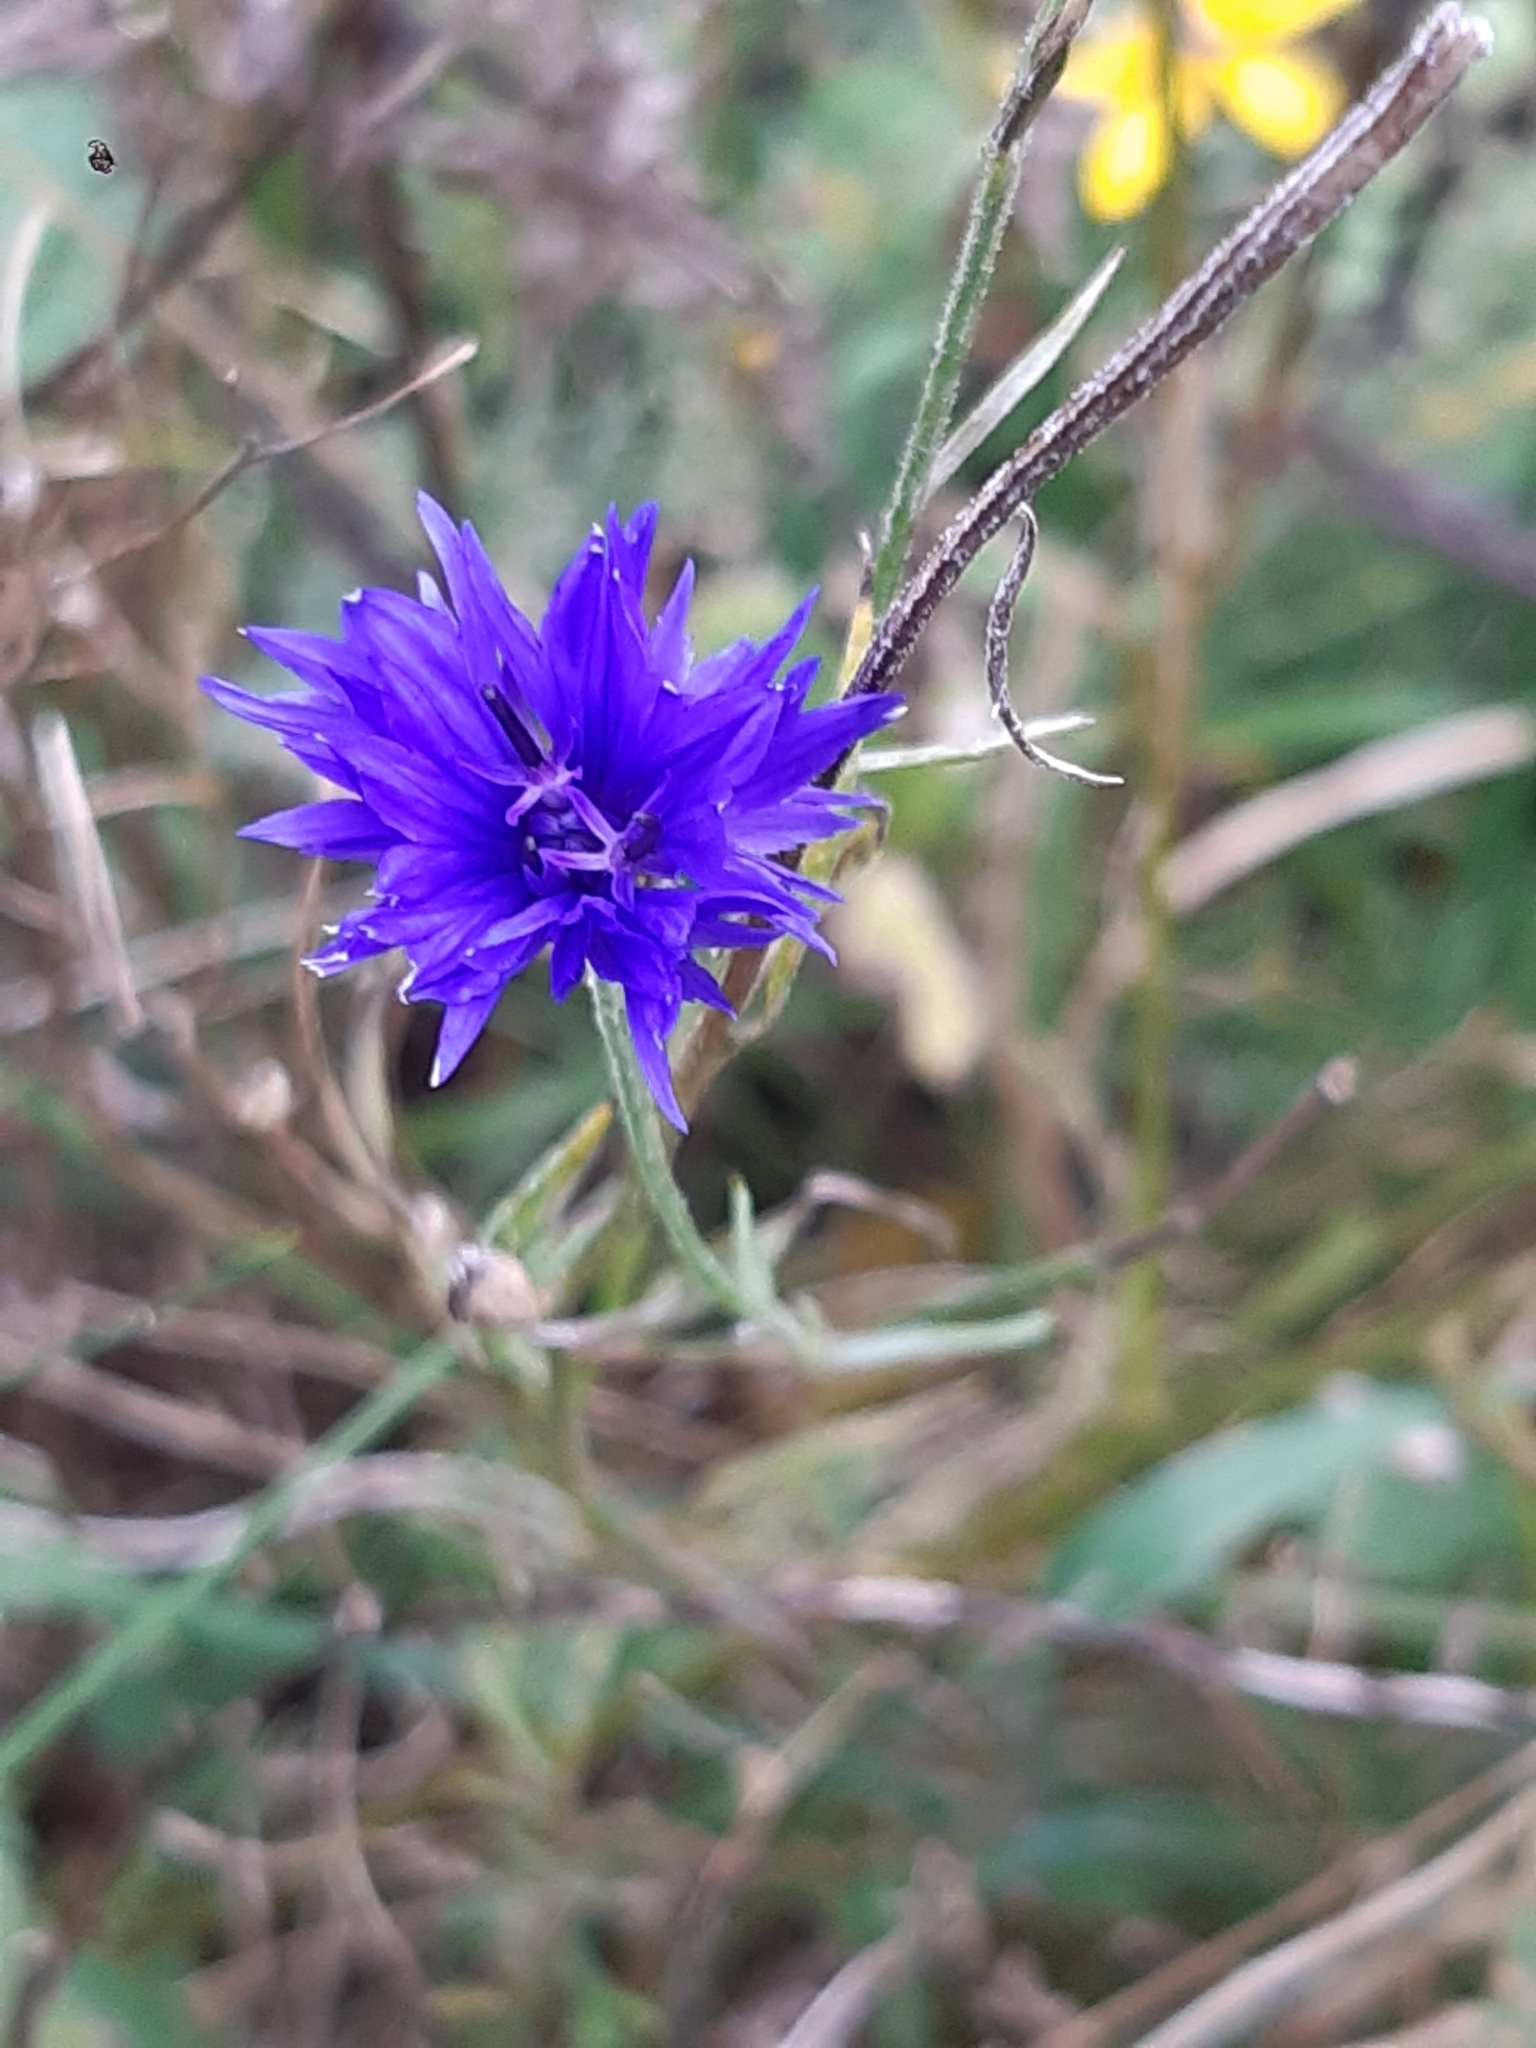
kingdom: Plantae
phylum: Tracheophyta
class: Magnoliopsida
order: Asterales
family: Asteraceae
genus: Centaurea
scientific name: Centaurea cyanus
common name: Cornflower
